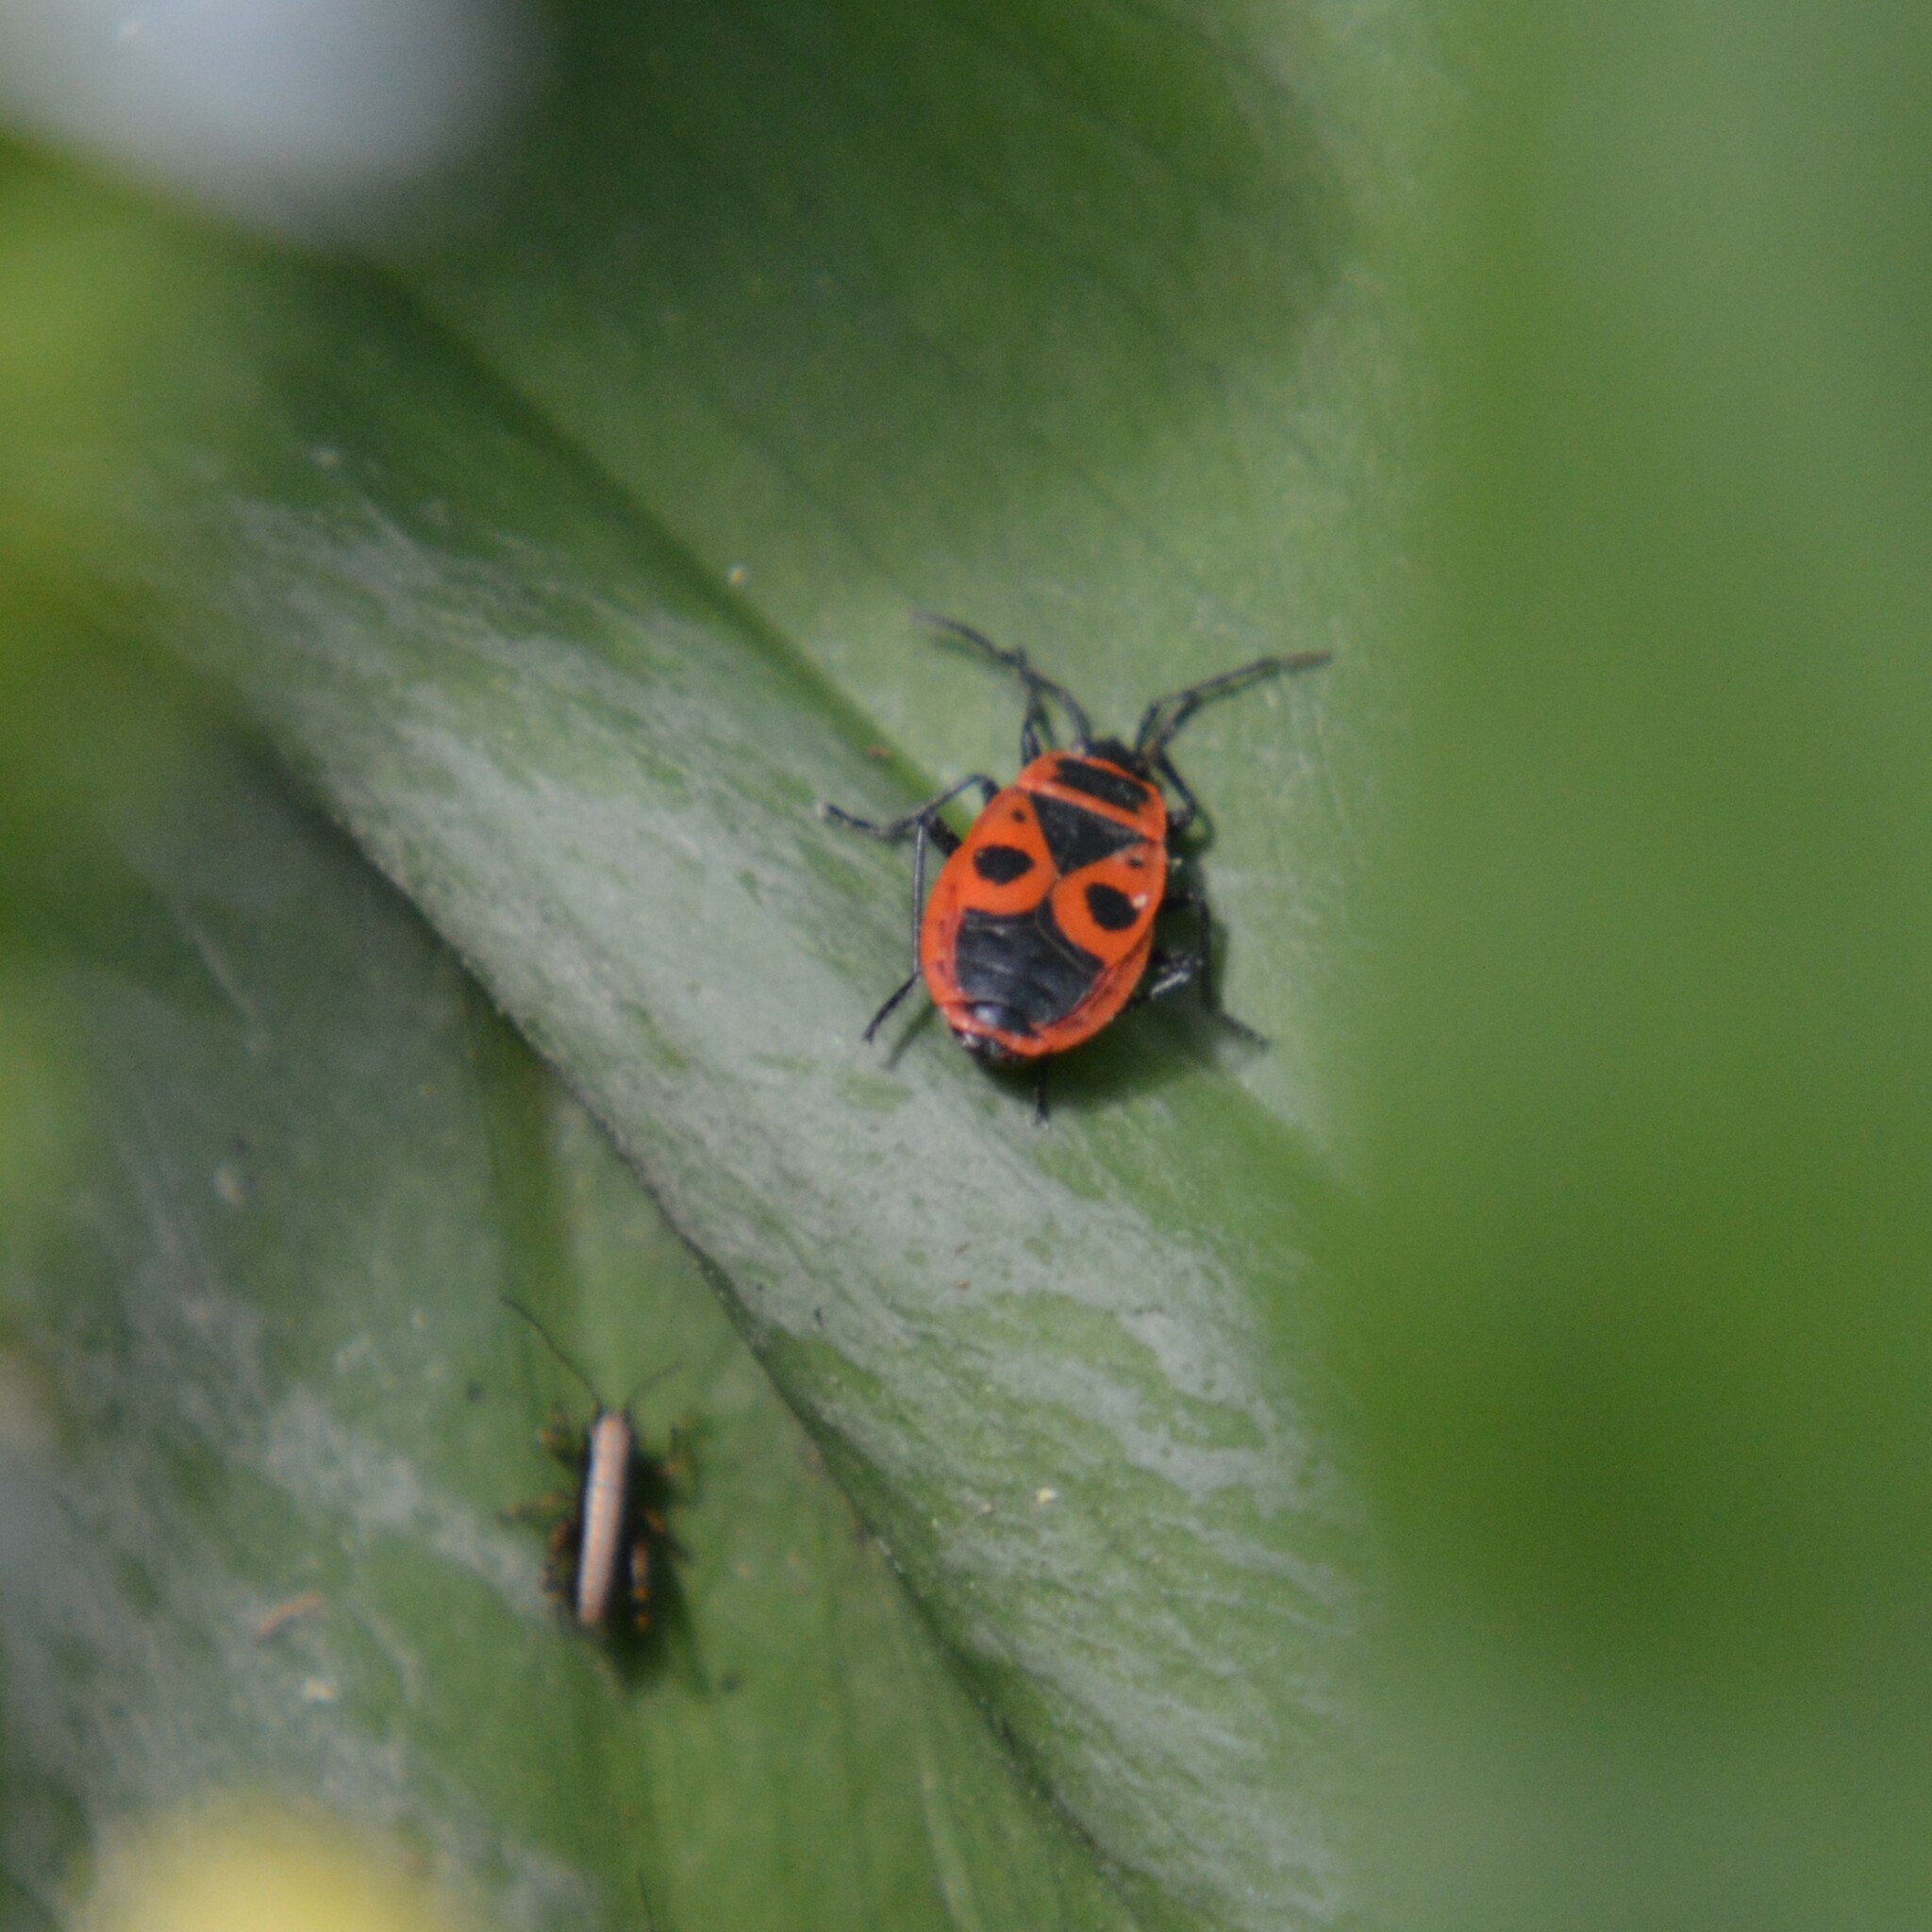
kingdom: Animalia
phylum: Arthropoda
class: Insecta
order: Hemiptera
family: Pyrrhocoridae
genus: Pyrrhocoris
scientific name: Pyrrhocoris apterus
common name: Firebug
